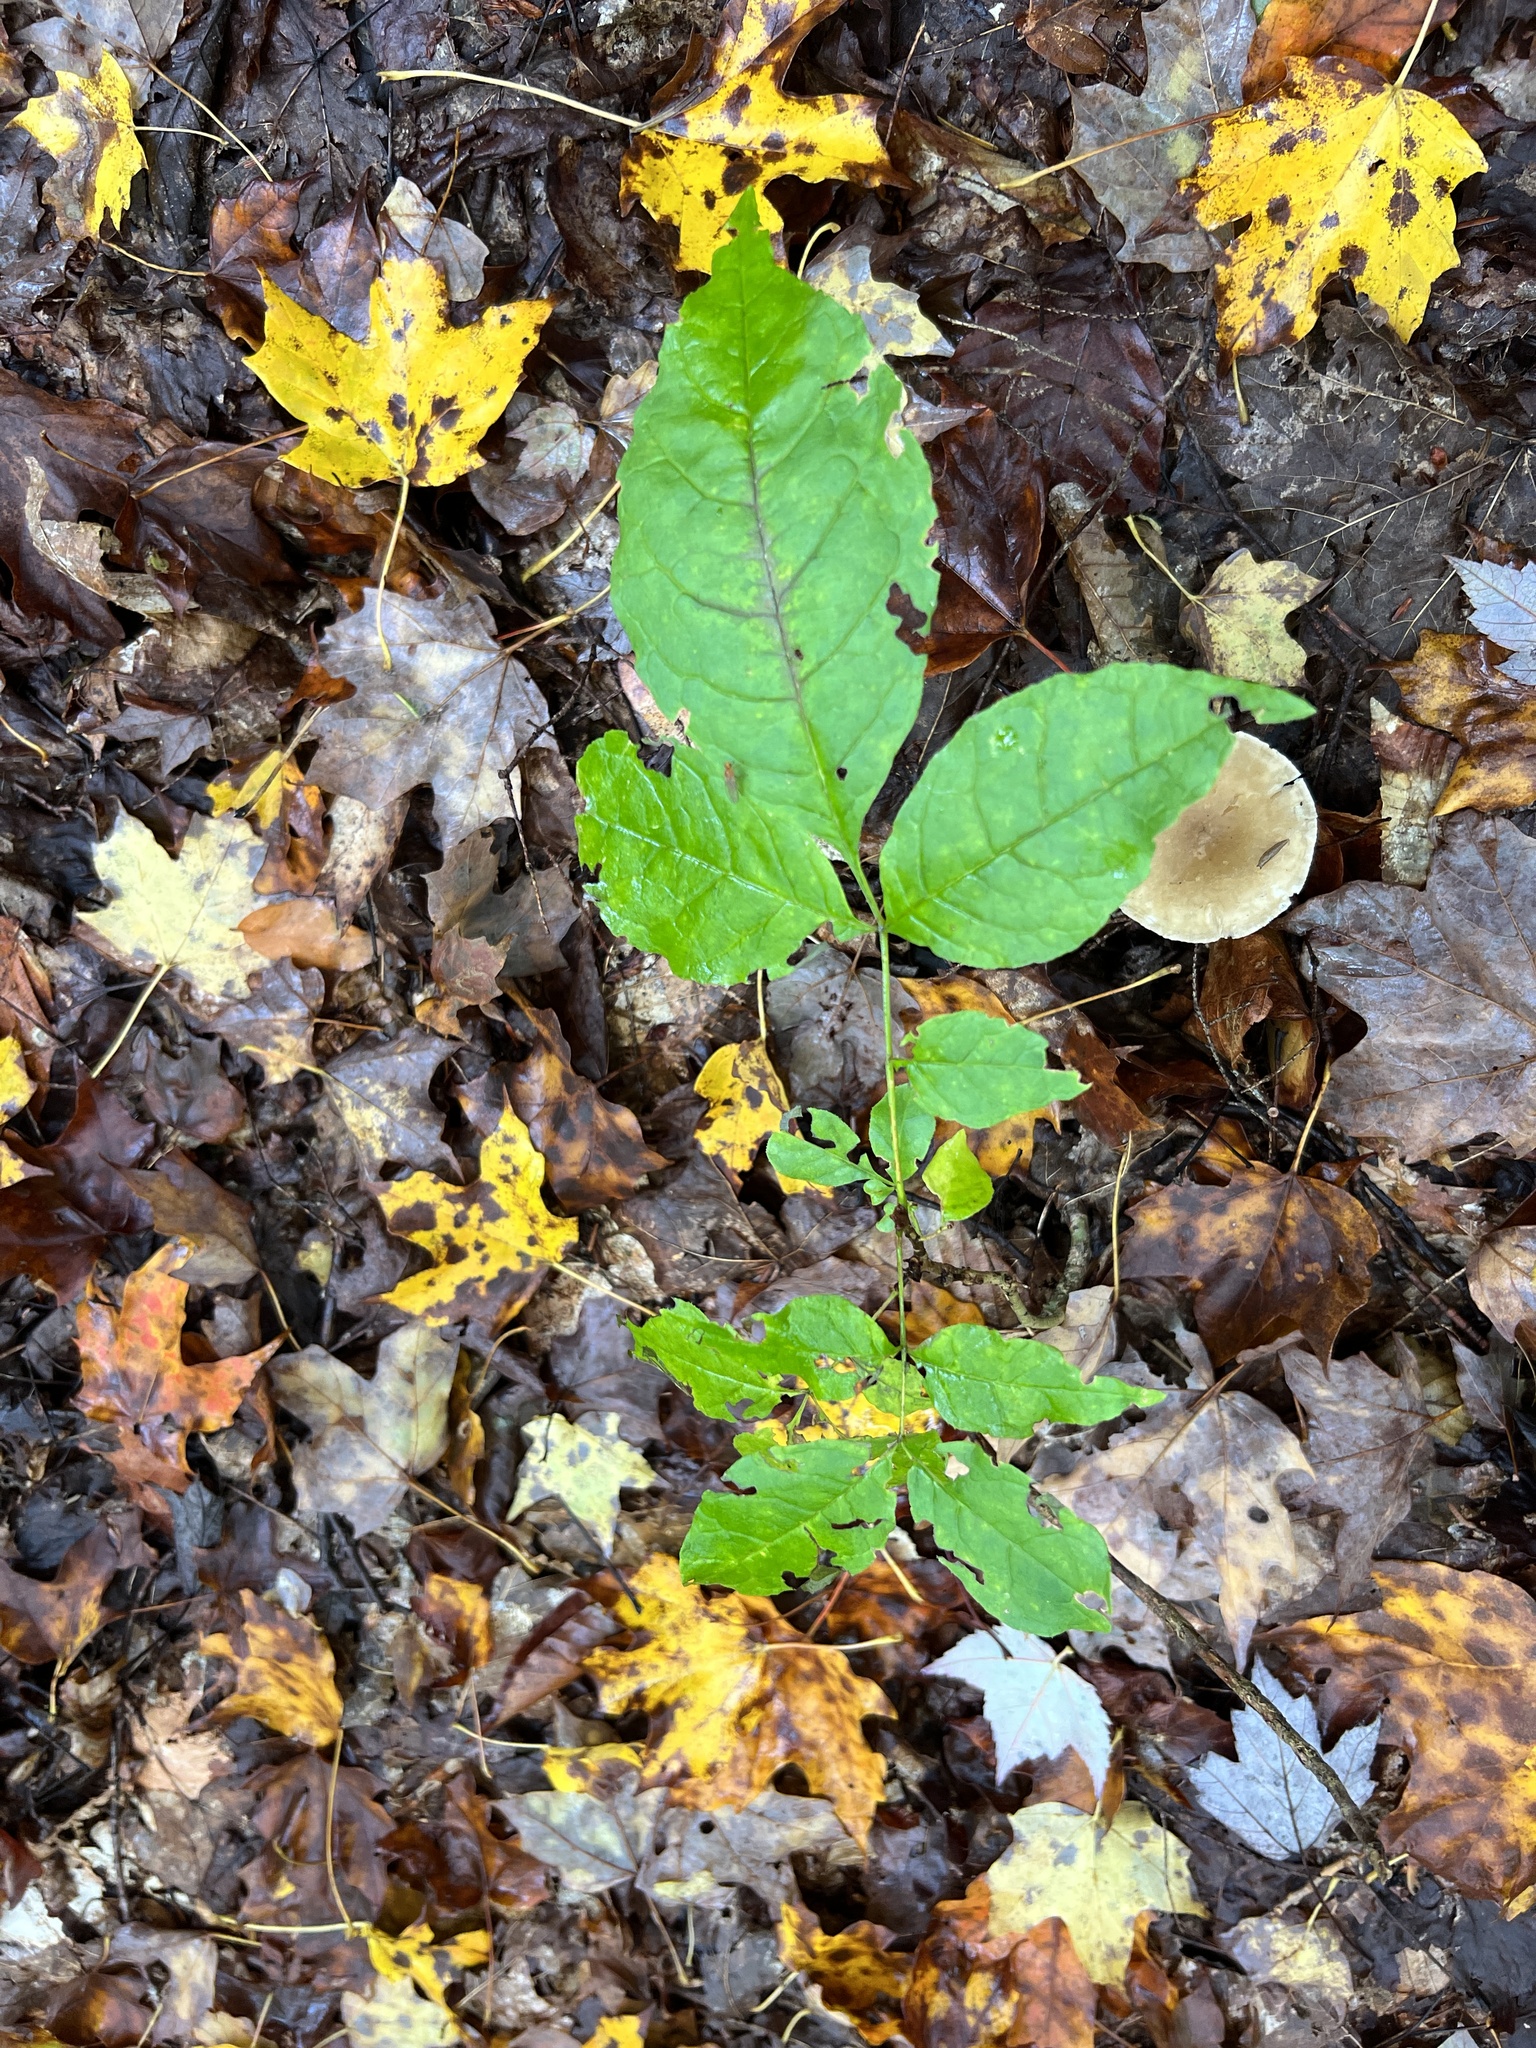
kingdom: Plantae
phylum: Tracheophyta
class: Magnoliopsida
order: Lamiales
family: Oleaceae
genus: Fraxinus
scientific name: Fraxinus americana
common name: White ash
